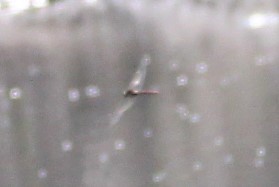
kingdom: Animalia
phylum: Arthropoda
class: Insecta
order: Odonata
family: Aeshnidae
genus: Anax
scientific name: Anax longipes
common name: Comet darner
